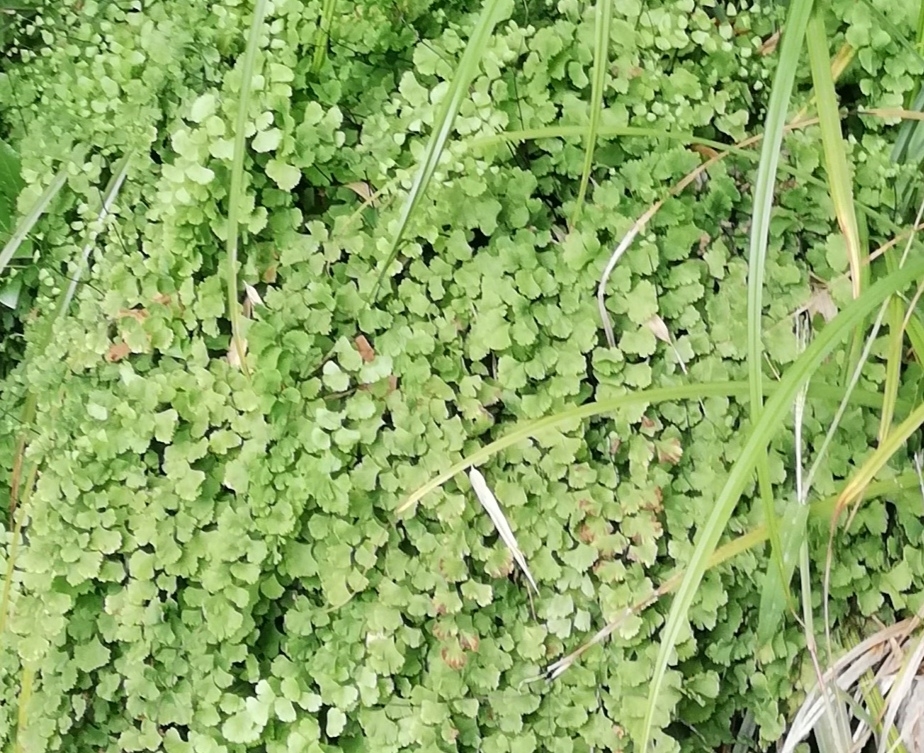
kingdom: Plantae
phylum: Tracheophyta
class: Polypodiopsida
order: Polypodiales
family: Pteridaceae
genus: Adiantum
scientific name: Adiantum capillus-veneris
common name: Maidenhair fern
